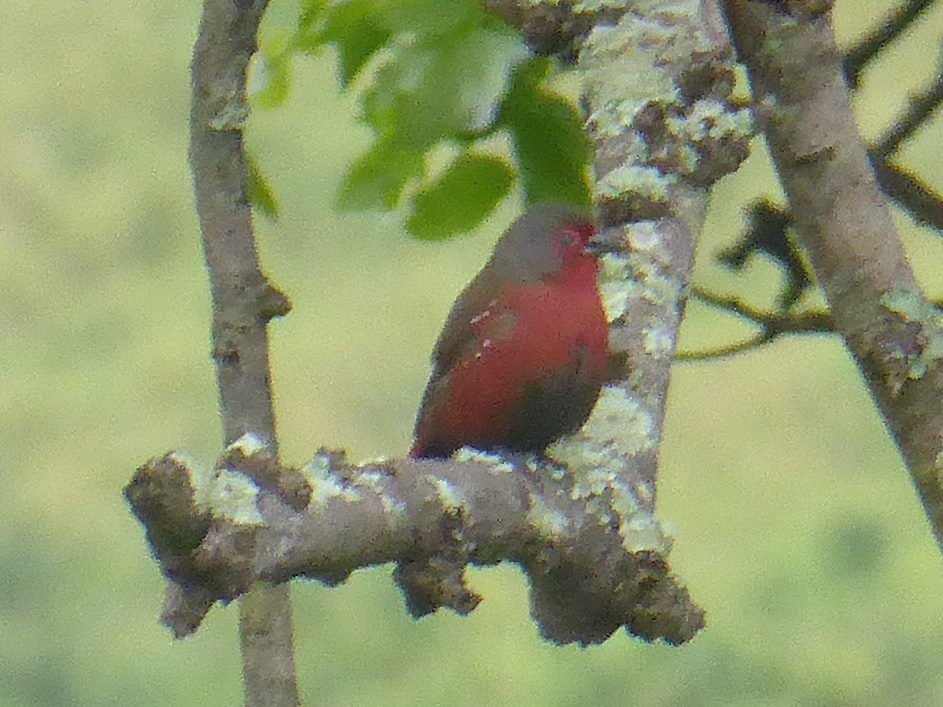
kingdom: Animalia
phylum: Chordata
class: Aves
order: Passeriformes
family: Estrildidae
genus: Lagonosticta
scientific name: Lagonosticta rubricata
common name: African firefinch
